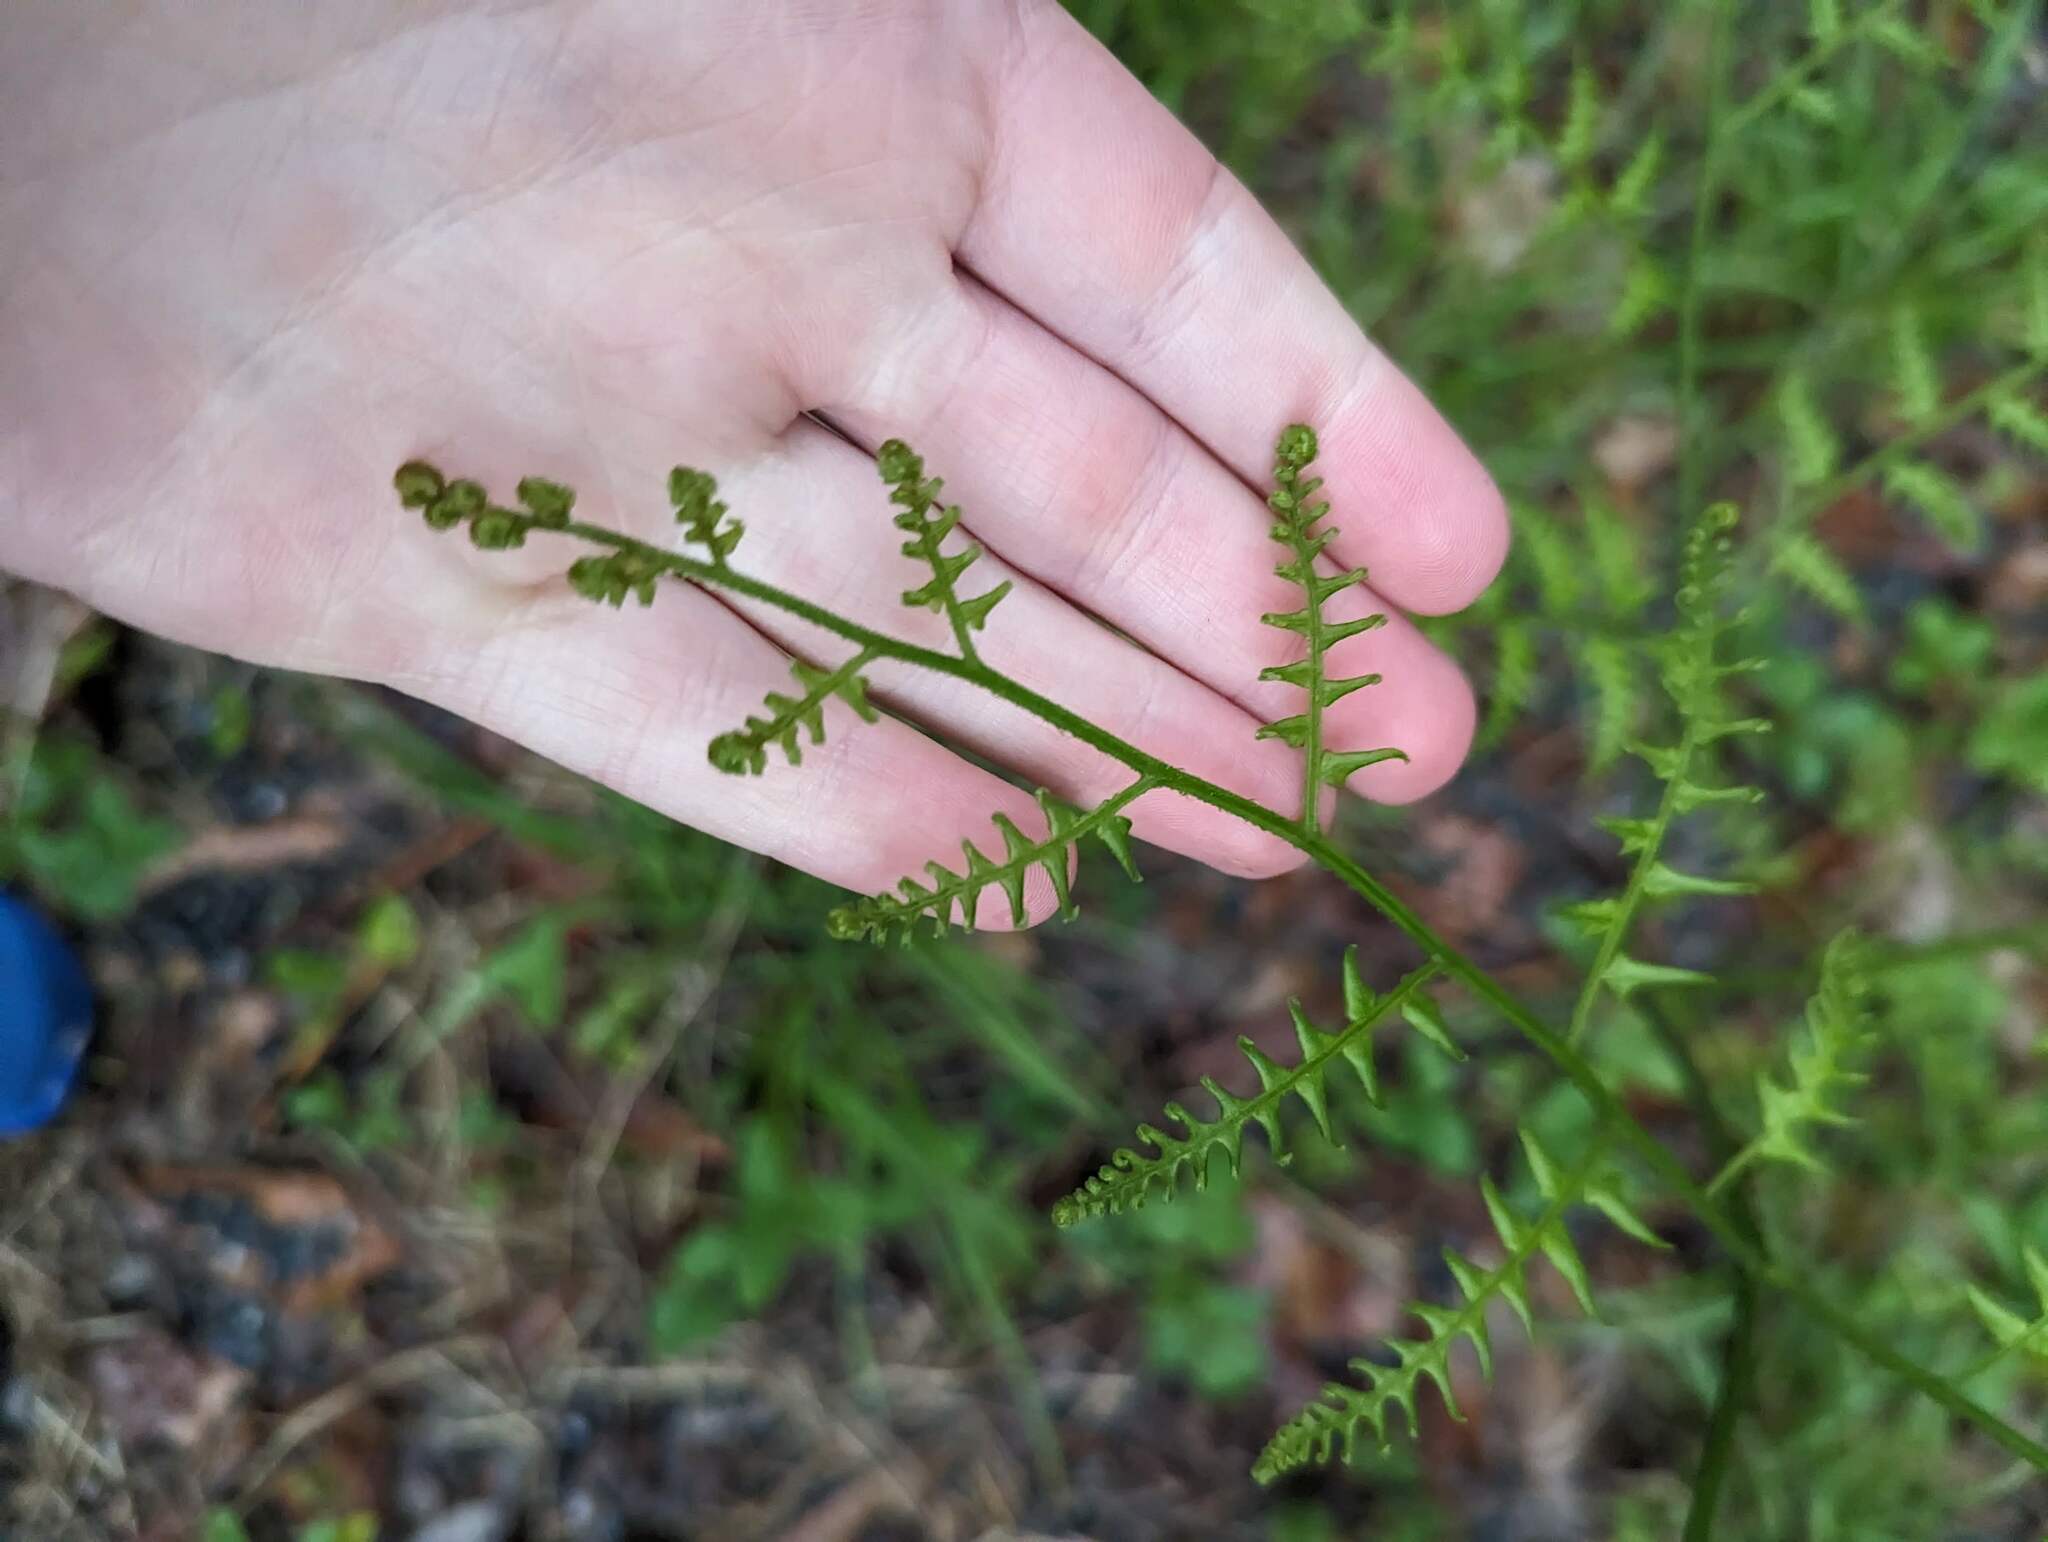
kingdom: Plantae
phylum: Tracheophyta
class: Polypodiopsida
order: Polypodiales
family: Dennstaedtiaceae
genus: Pteridium
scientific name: Pteridium aquilinum
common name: Bracken
